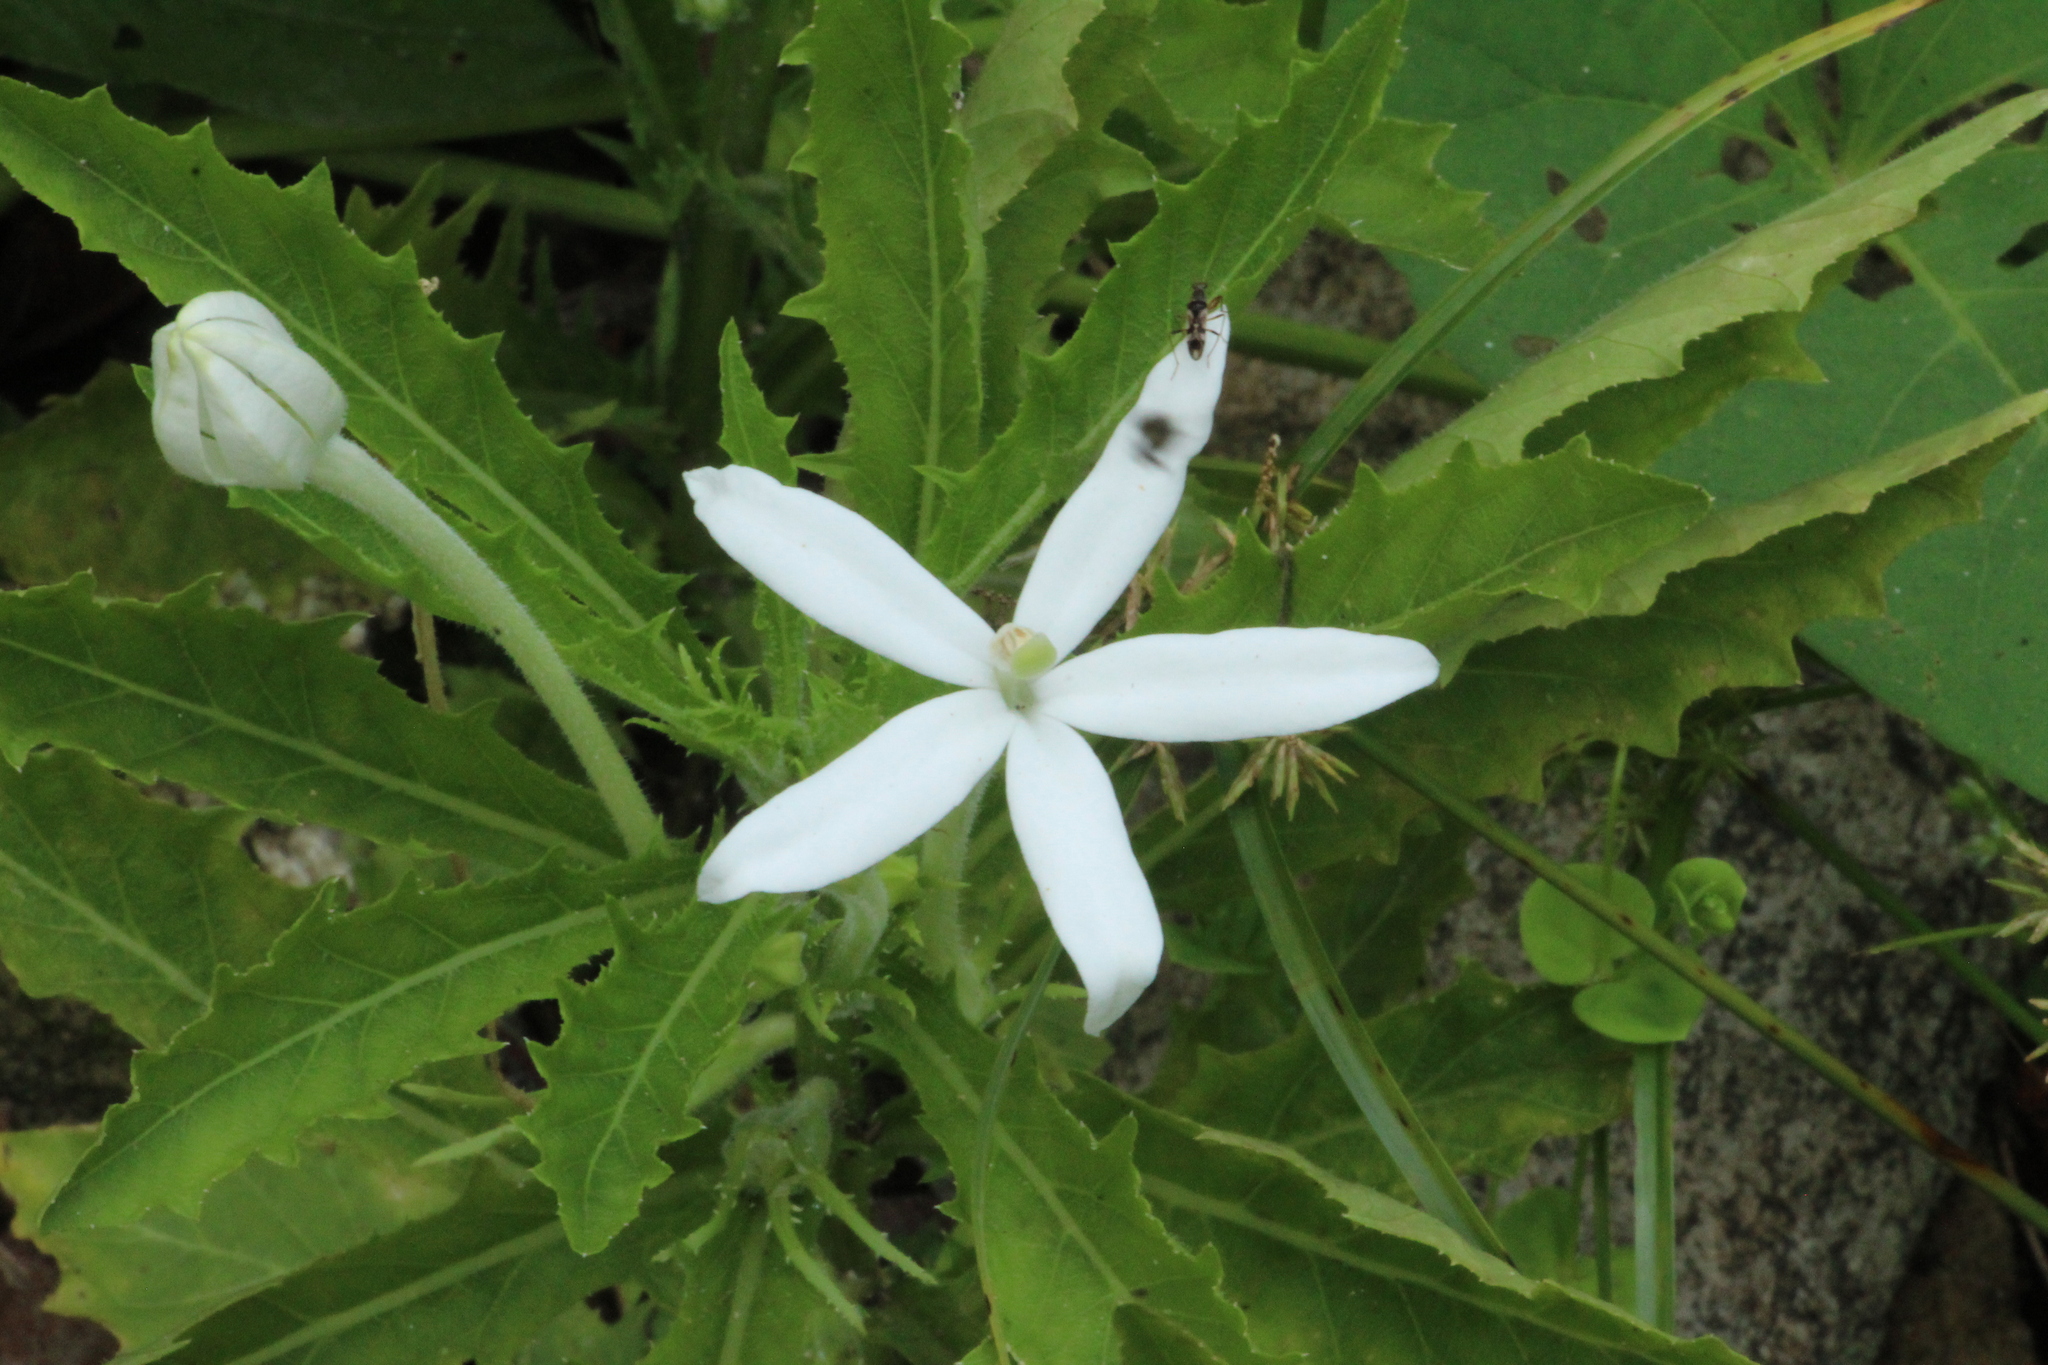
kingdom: Plantae
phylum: Tracheophyta
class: Magnoliopsida
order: Asterales
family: Campanulaceae
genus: Hippobroma
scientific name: Hippobroma longiflora
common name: Madamfate
